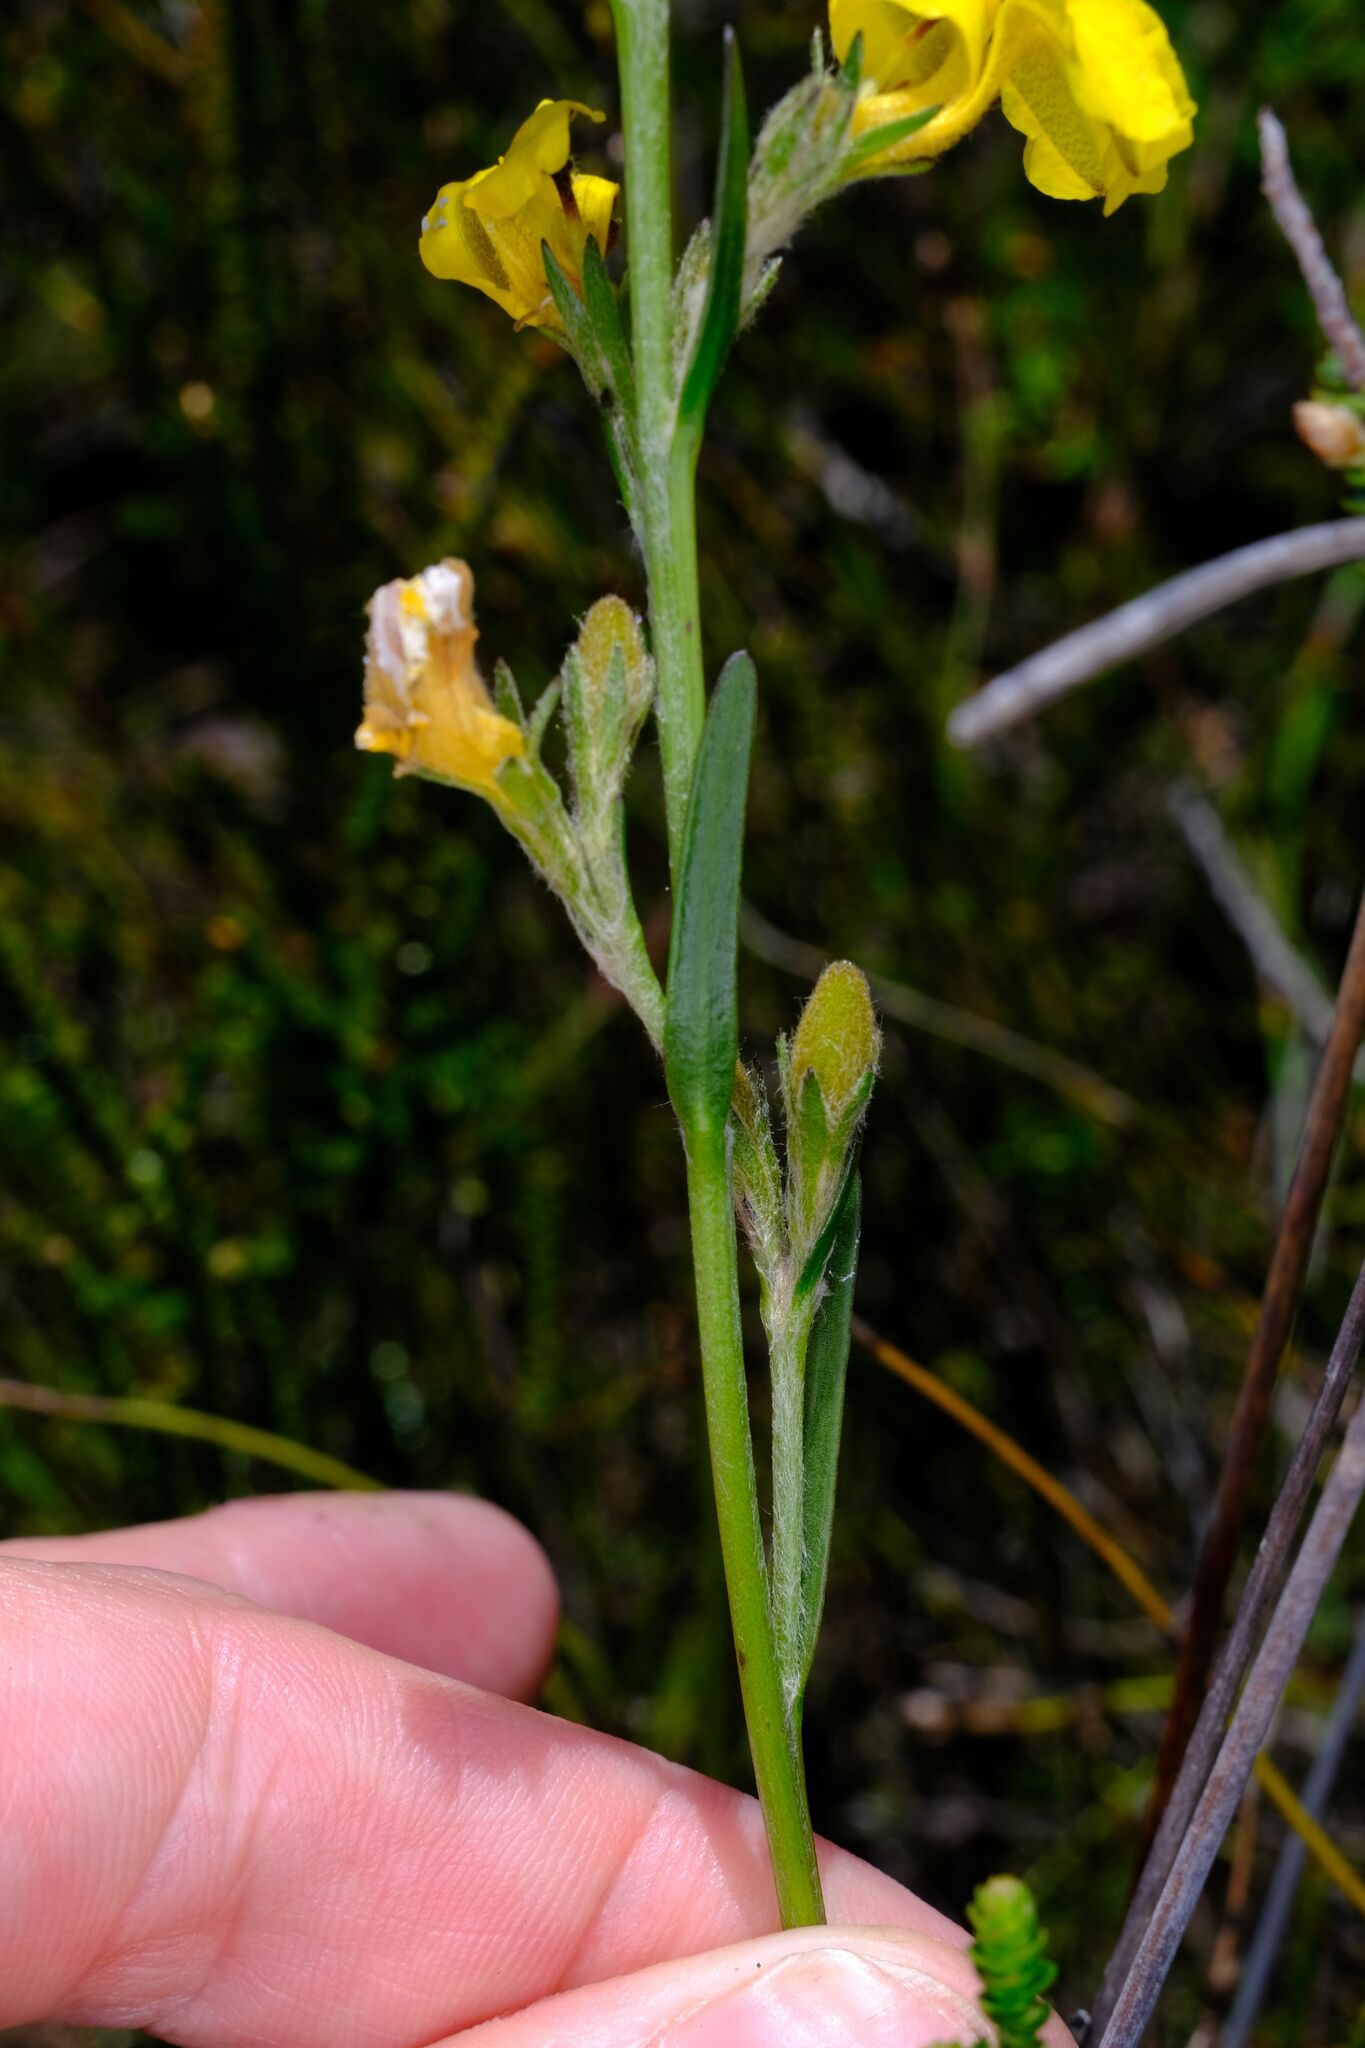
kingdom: Plantae
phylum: Tracheophyta
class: Magnoliopsida
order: Asterales
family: Goodeniaceae
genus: Goodenia
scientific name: Goodenia stelligera
